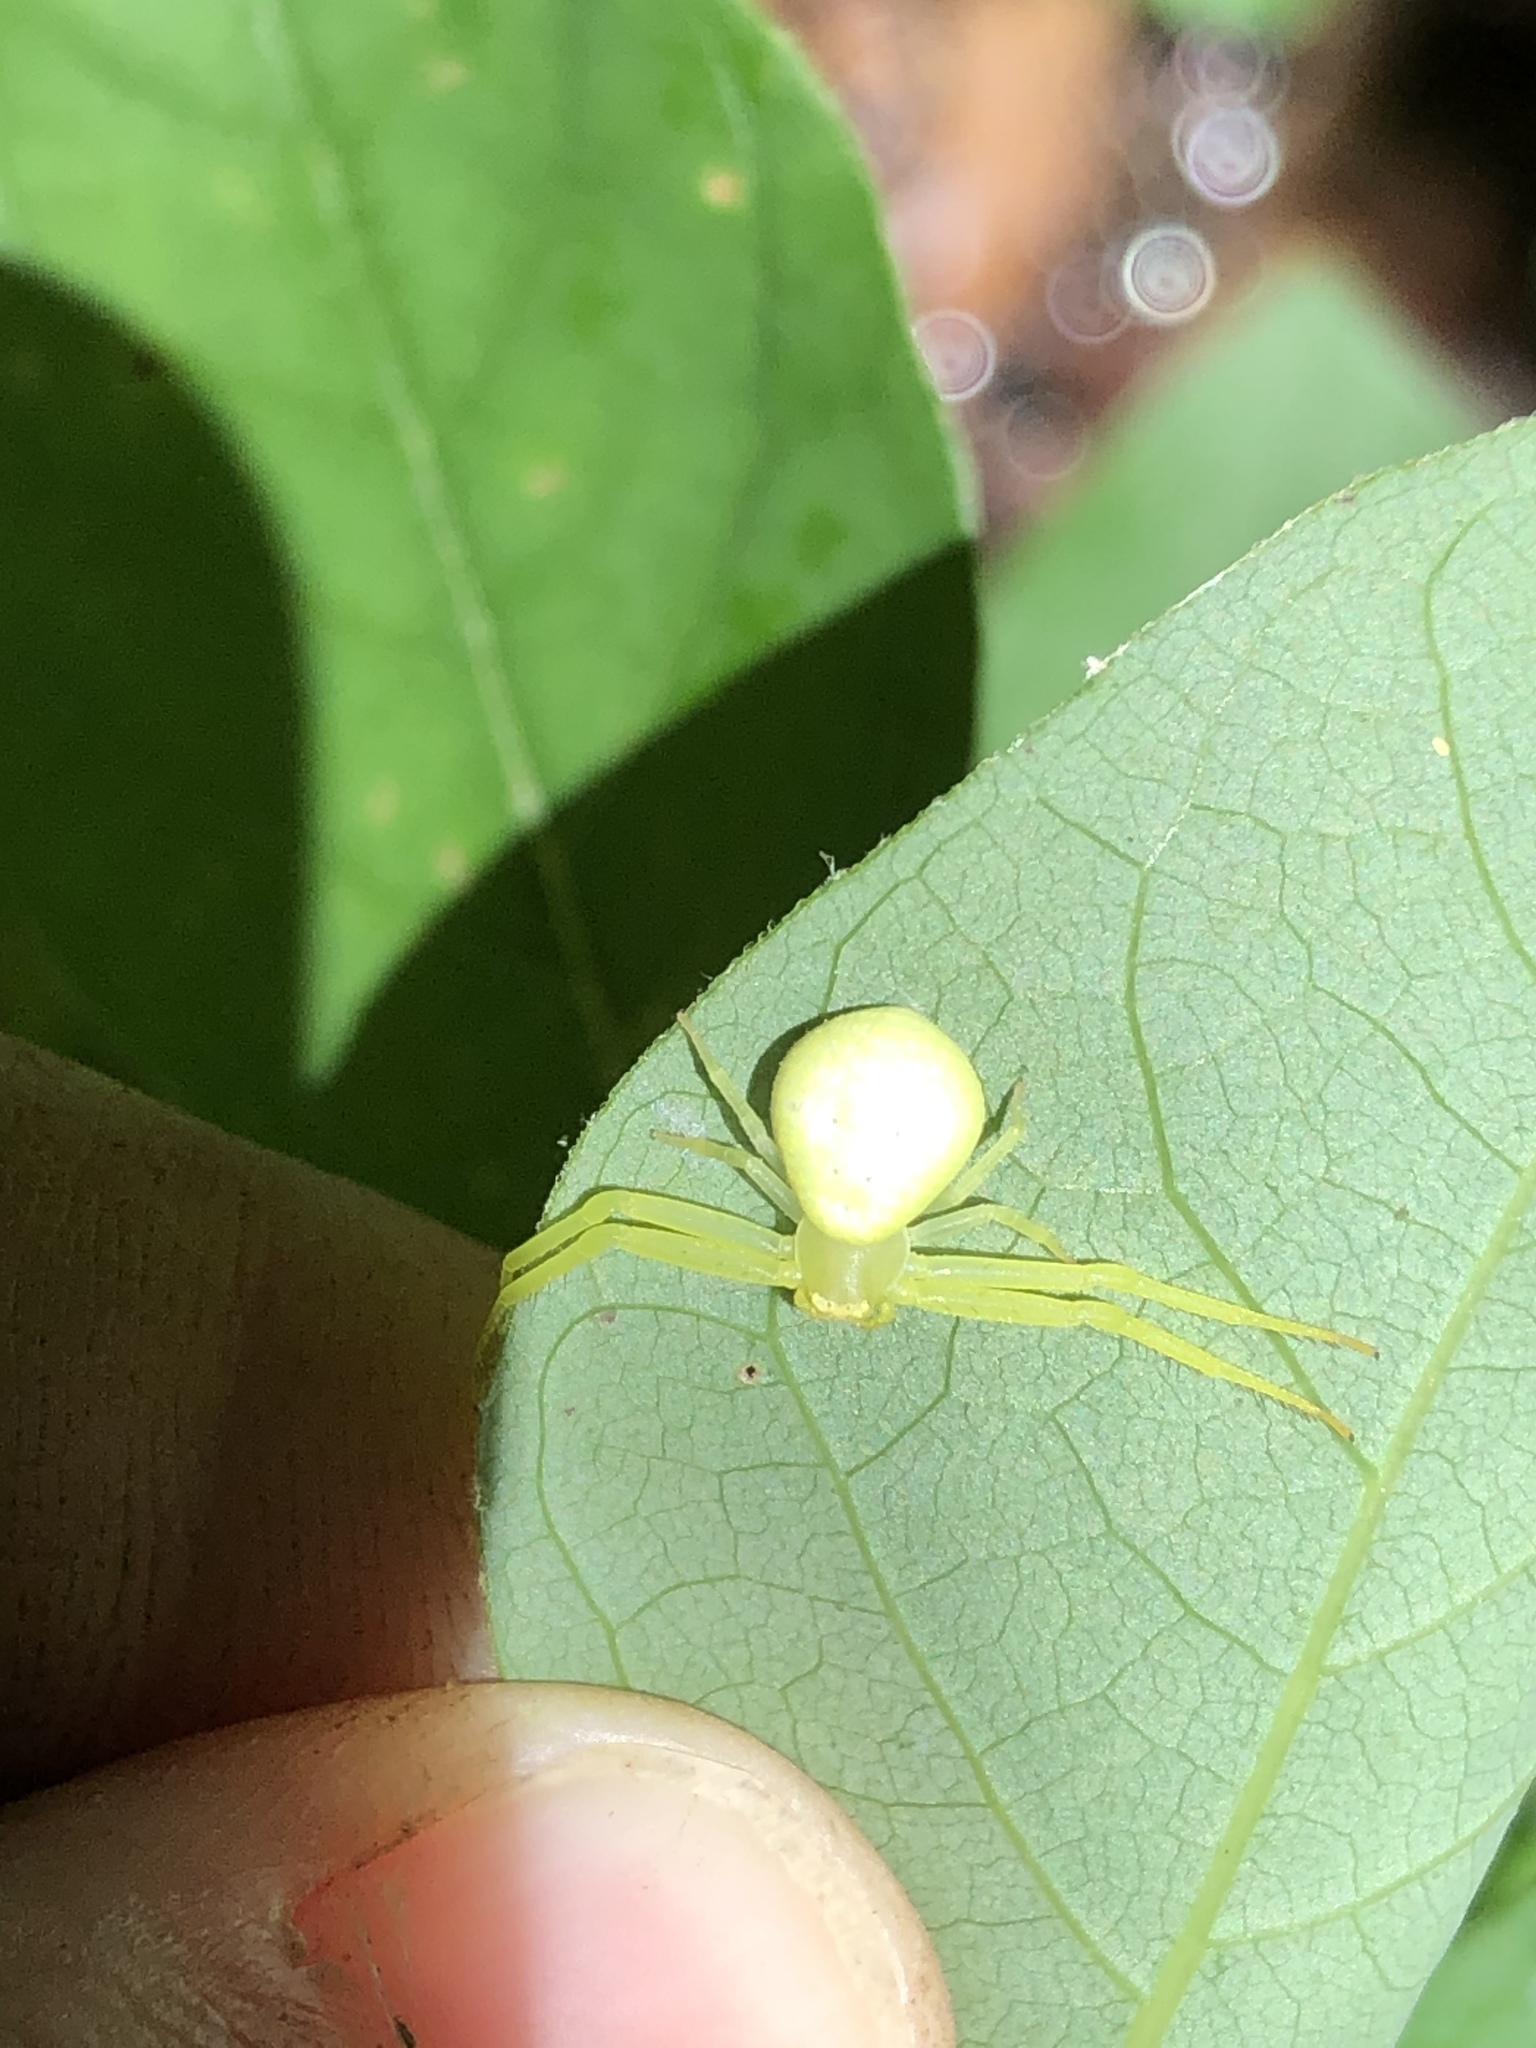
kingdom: Animalia
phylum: Arthropoda
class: Arachnida
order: Araneae
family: Thomisidae
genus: Misumessus
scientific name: Misumessus oblongus
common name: American green crab spider
